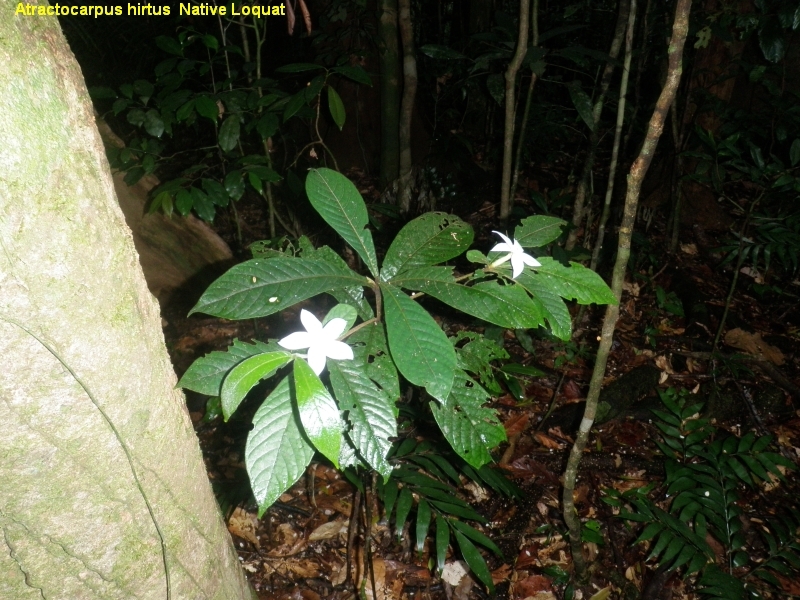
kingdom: Plantae
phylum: Tracheophyta
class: Magnoliopsida
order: Gentianales
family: Rubiaceae
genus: Atractocarpus
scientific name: Atractocarpus hirtus
